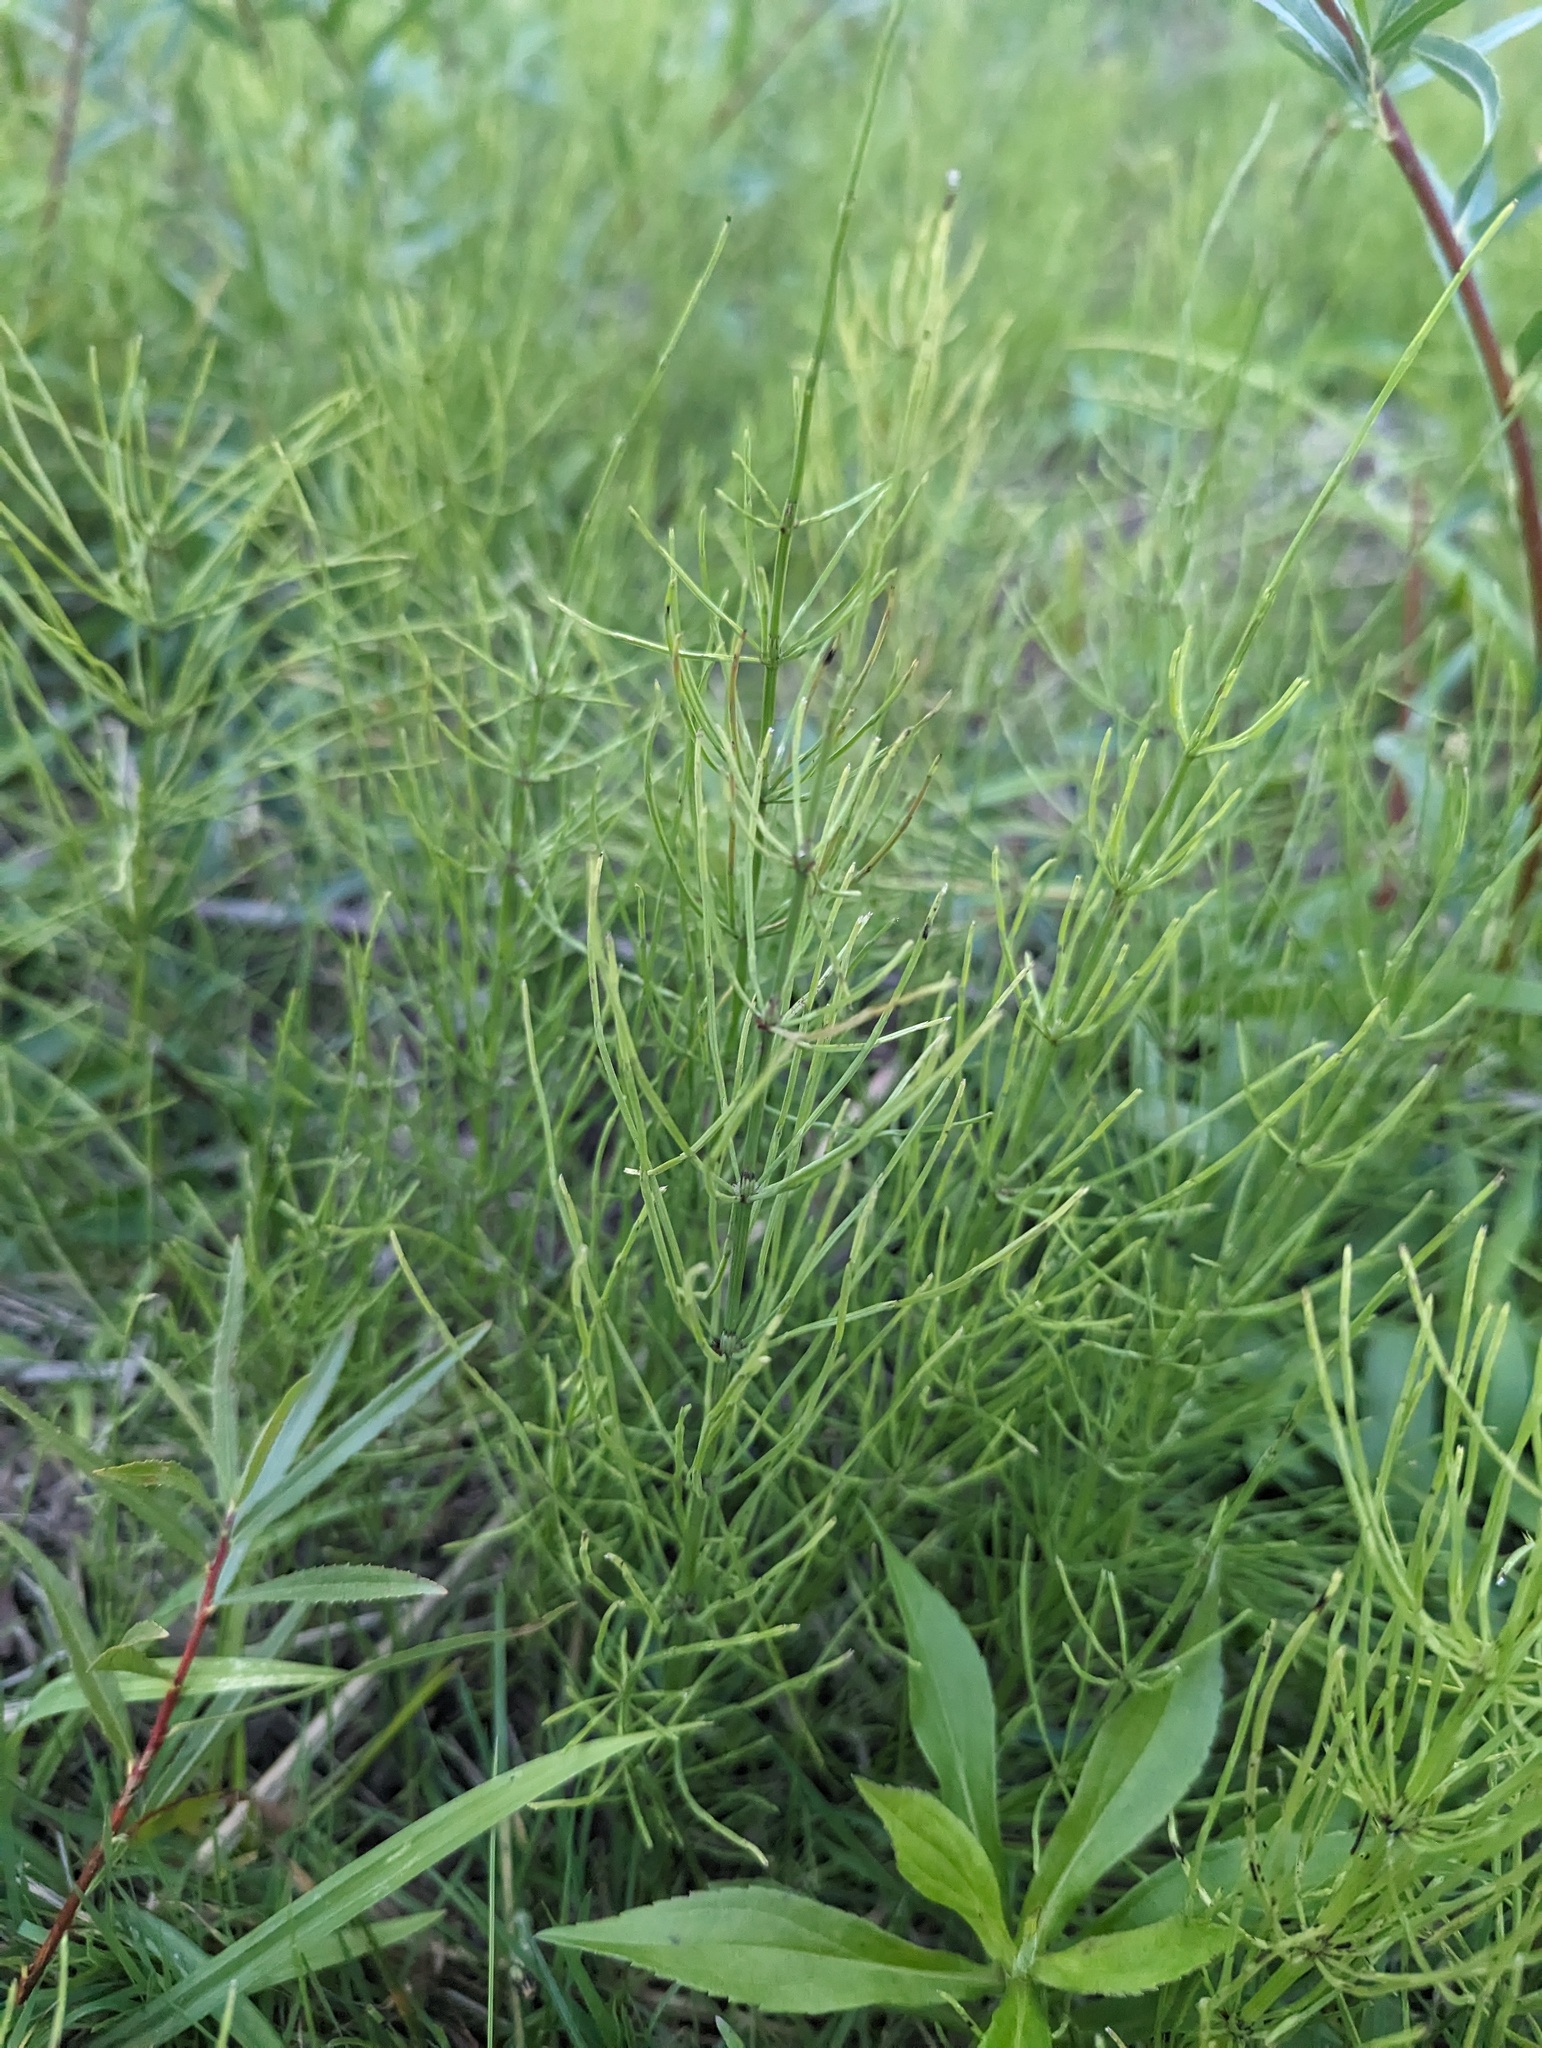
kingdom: Plantae
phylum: Tracheophyta
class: Polypodiopsida
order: Equisetales
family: Equisetaceae
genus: Equisetum
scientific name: Equisetum arvense
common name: Field horsetail
